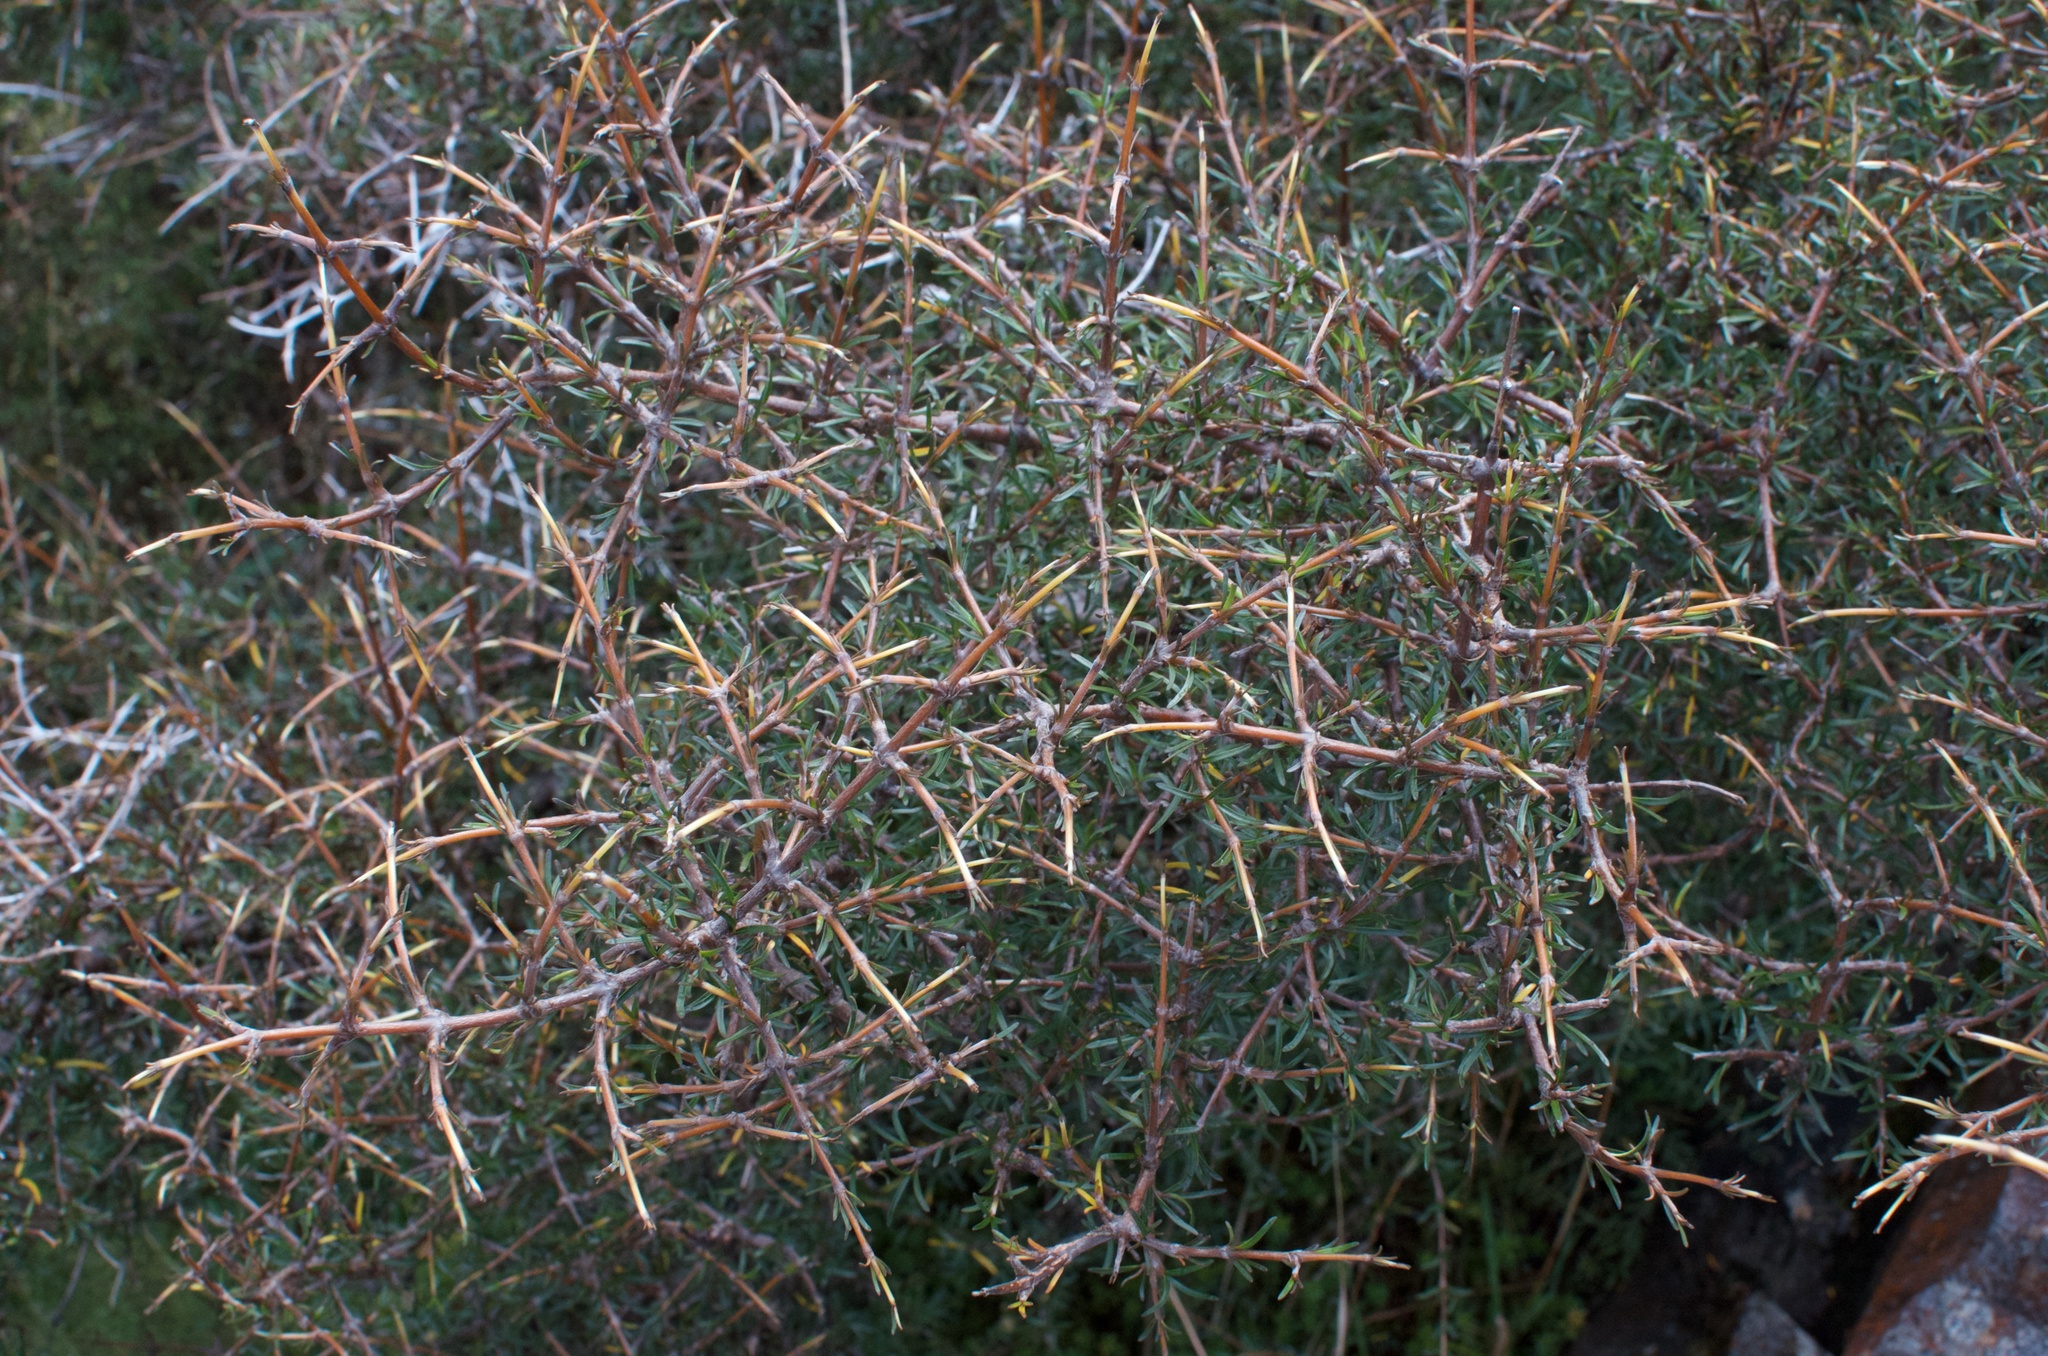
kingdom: Plantae
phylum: Tracheophyta
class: Magnoliopsida
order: Gentianales
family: Rubiaceae
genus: Coprosma
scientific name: Coprosma rugosa
